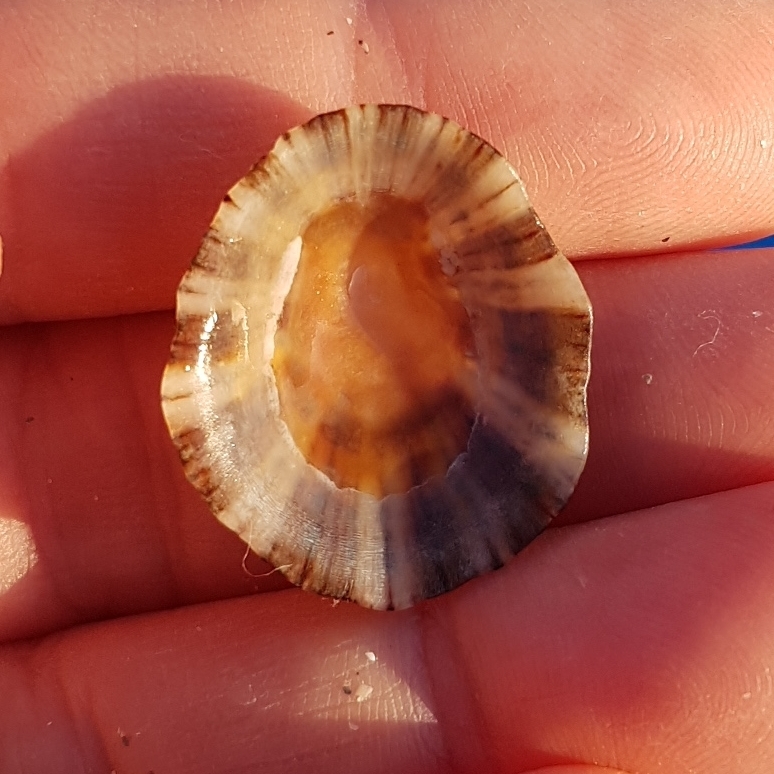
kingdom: Animalia
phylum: Mollusca
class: Gastropoda
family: Patellidae
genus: Patella
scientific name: Patella rustica
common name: Lusitanian limpet
